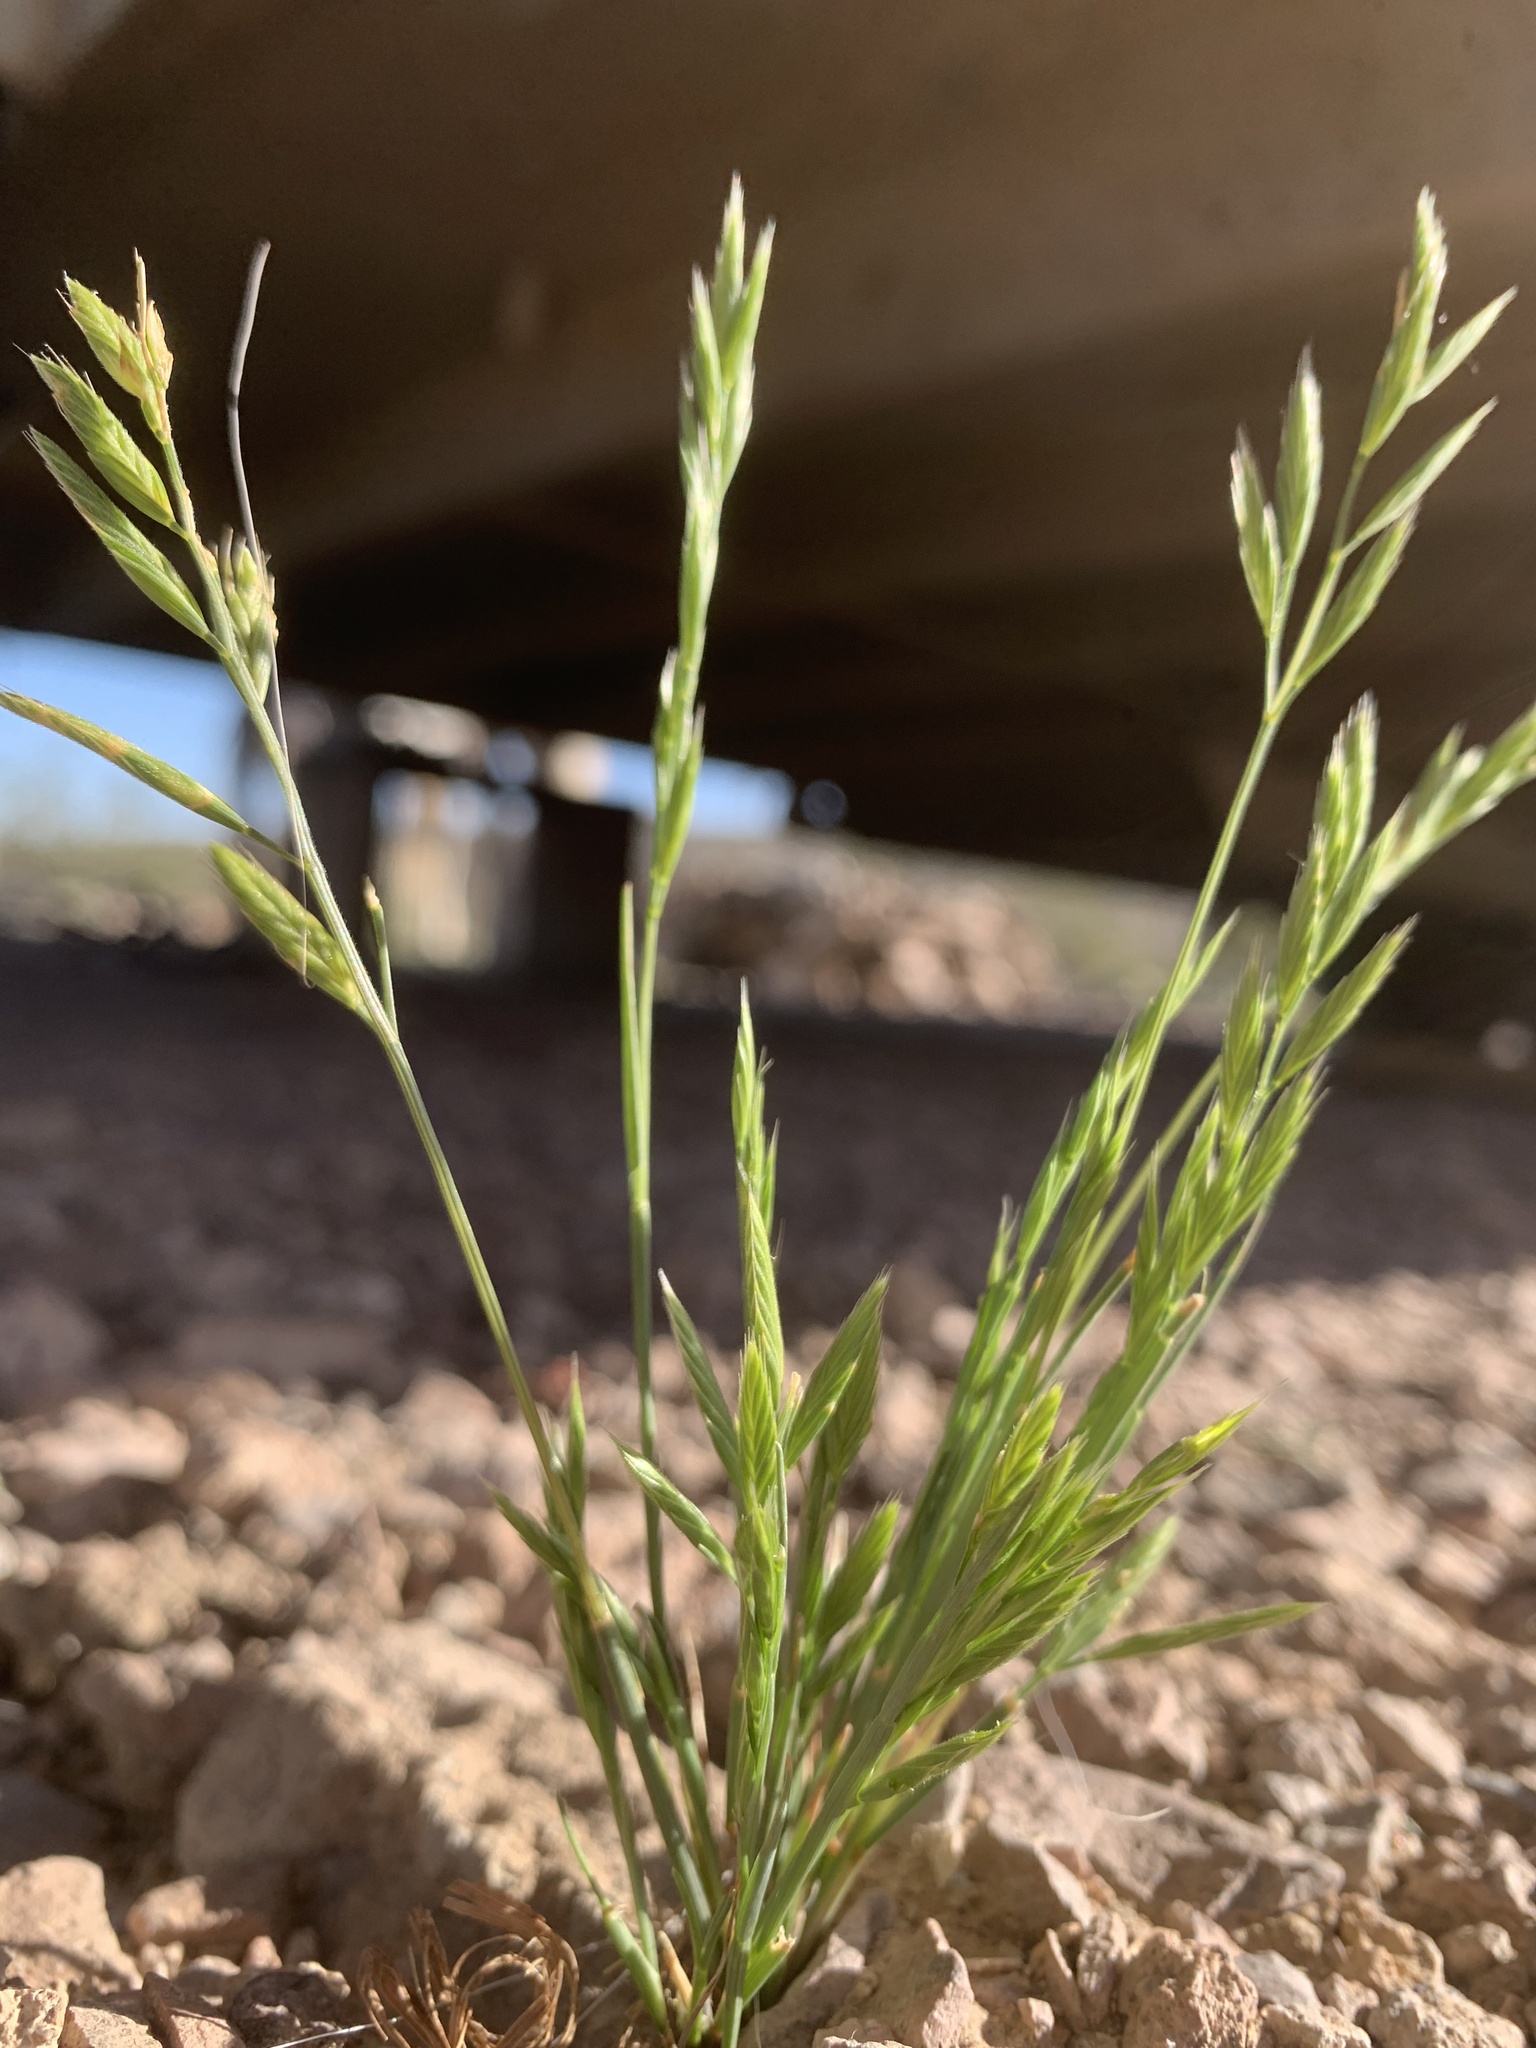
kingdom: Plantae
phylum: Tracheophyta
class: Liliopsida
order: Poales
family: Poaceae
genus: Festuca
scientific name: Festuca octoflora
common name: Sixweeks grass
